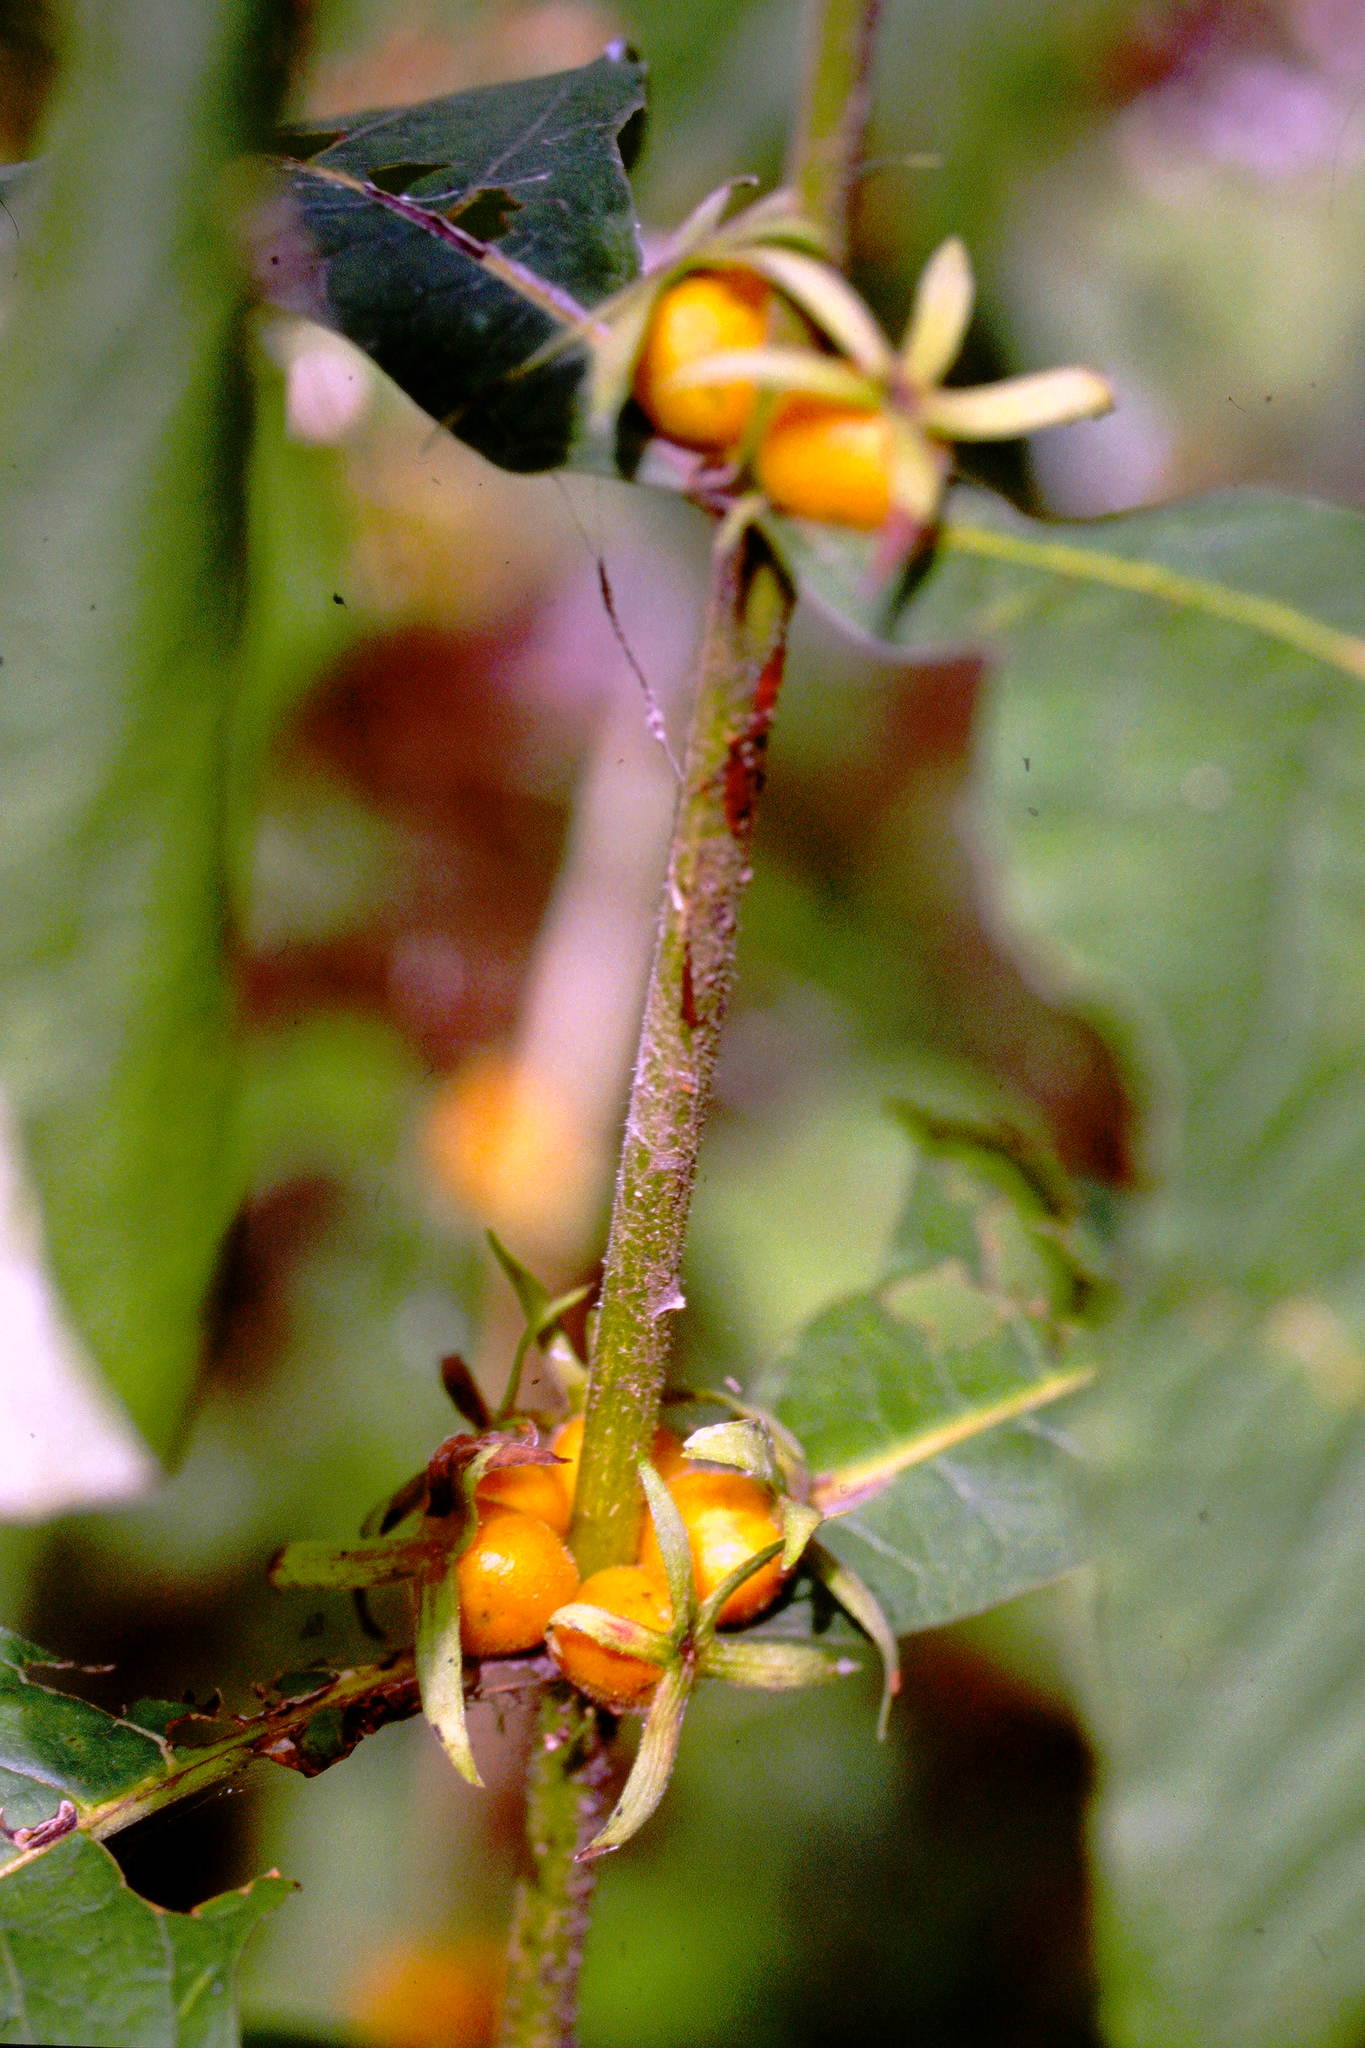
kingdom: Plantae
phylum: Tracheophyta
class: Magnoliopsida
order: Dipsacales
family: Caprifoliaceae
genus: Triosteum
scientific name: Triosteum aurantiacum
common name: Coffee tinker's-weed
